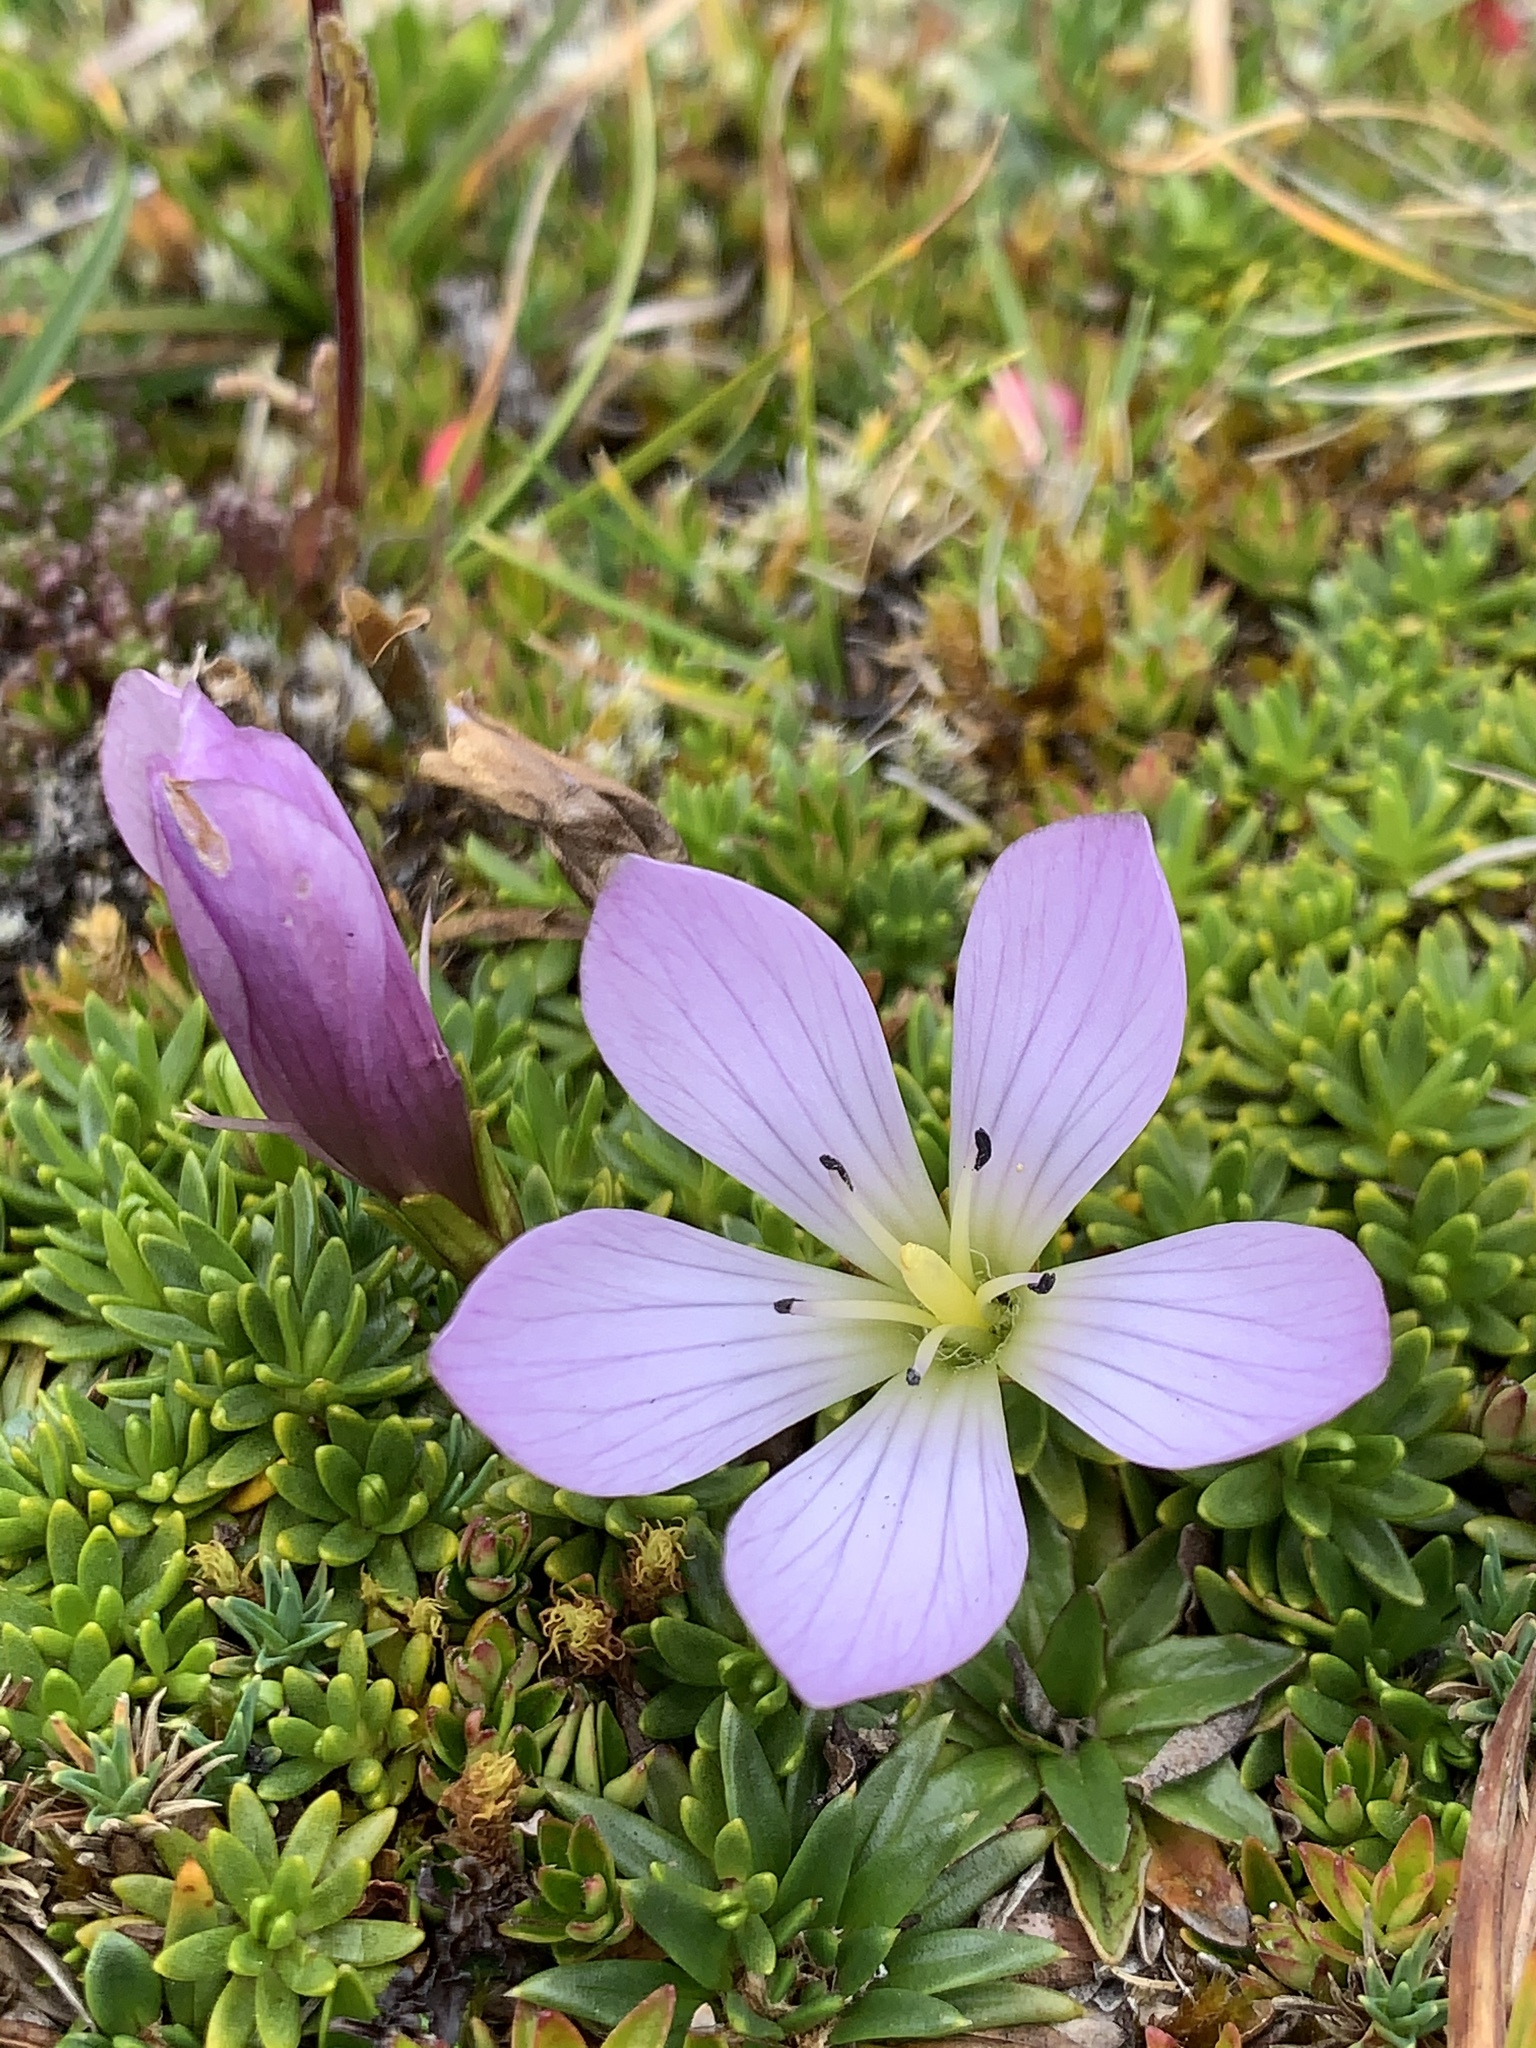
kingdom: Plantae
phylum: Tracheophyta
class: Magnoliopsida
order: Gentianales
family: Gentianaceae
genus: Gentianella
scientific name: Gentianella cerastioides
